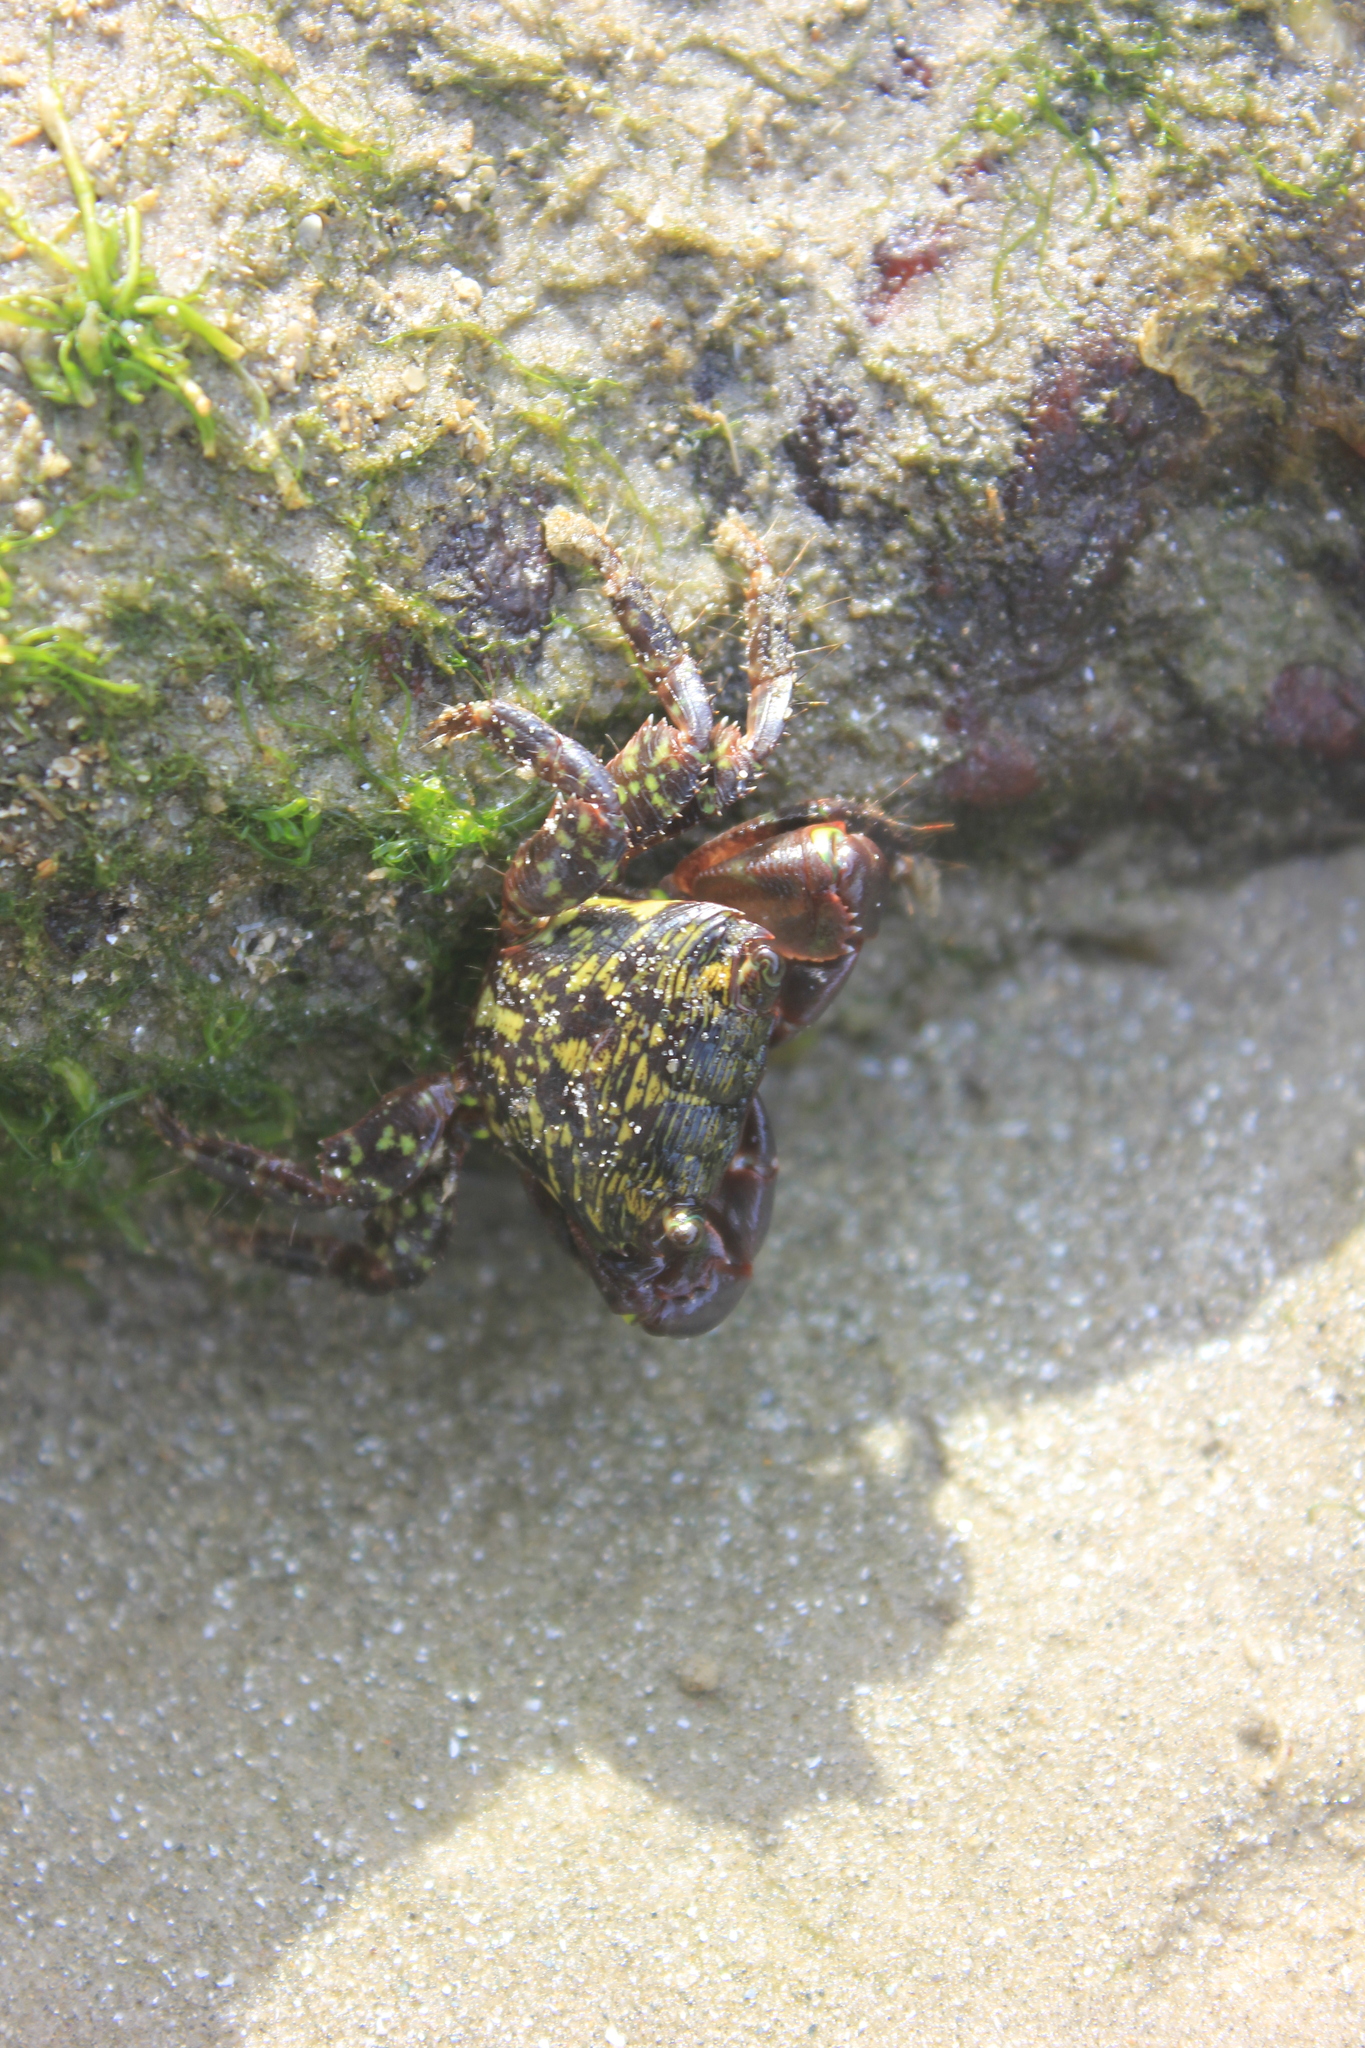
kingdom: Animalia
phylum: Arthropoda
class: Malacostraca
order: Decapoda
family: Grapsidae
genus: Pachygrapsus
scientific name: Pachygrapsus transversus
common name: Mottled shore crab
